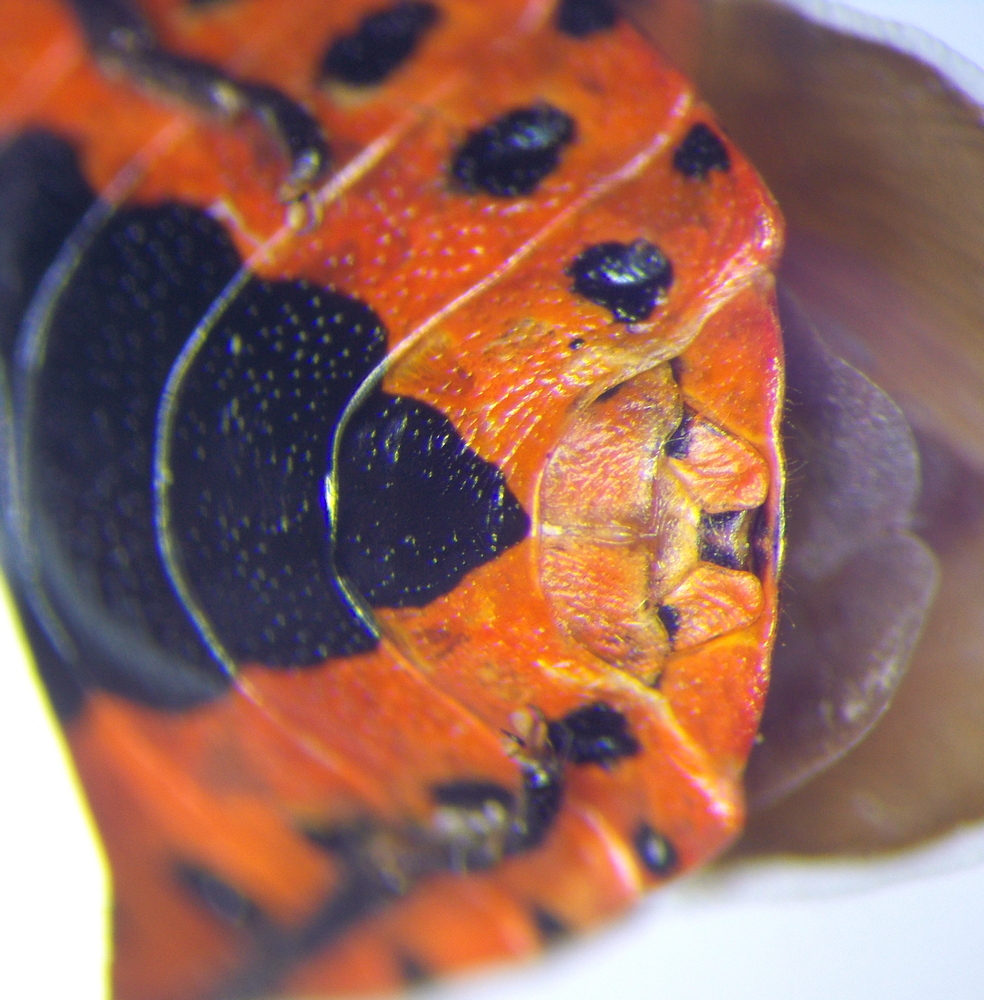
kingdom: Animalia
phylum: Arthropoda
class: Insecta
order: Hemiptera
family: Pentatomidae
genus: Eurydema
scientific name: Eurydema ornata
